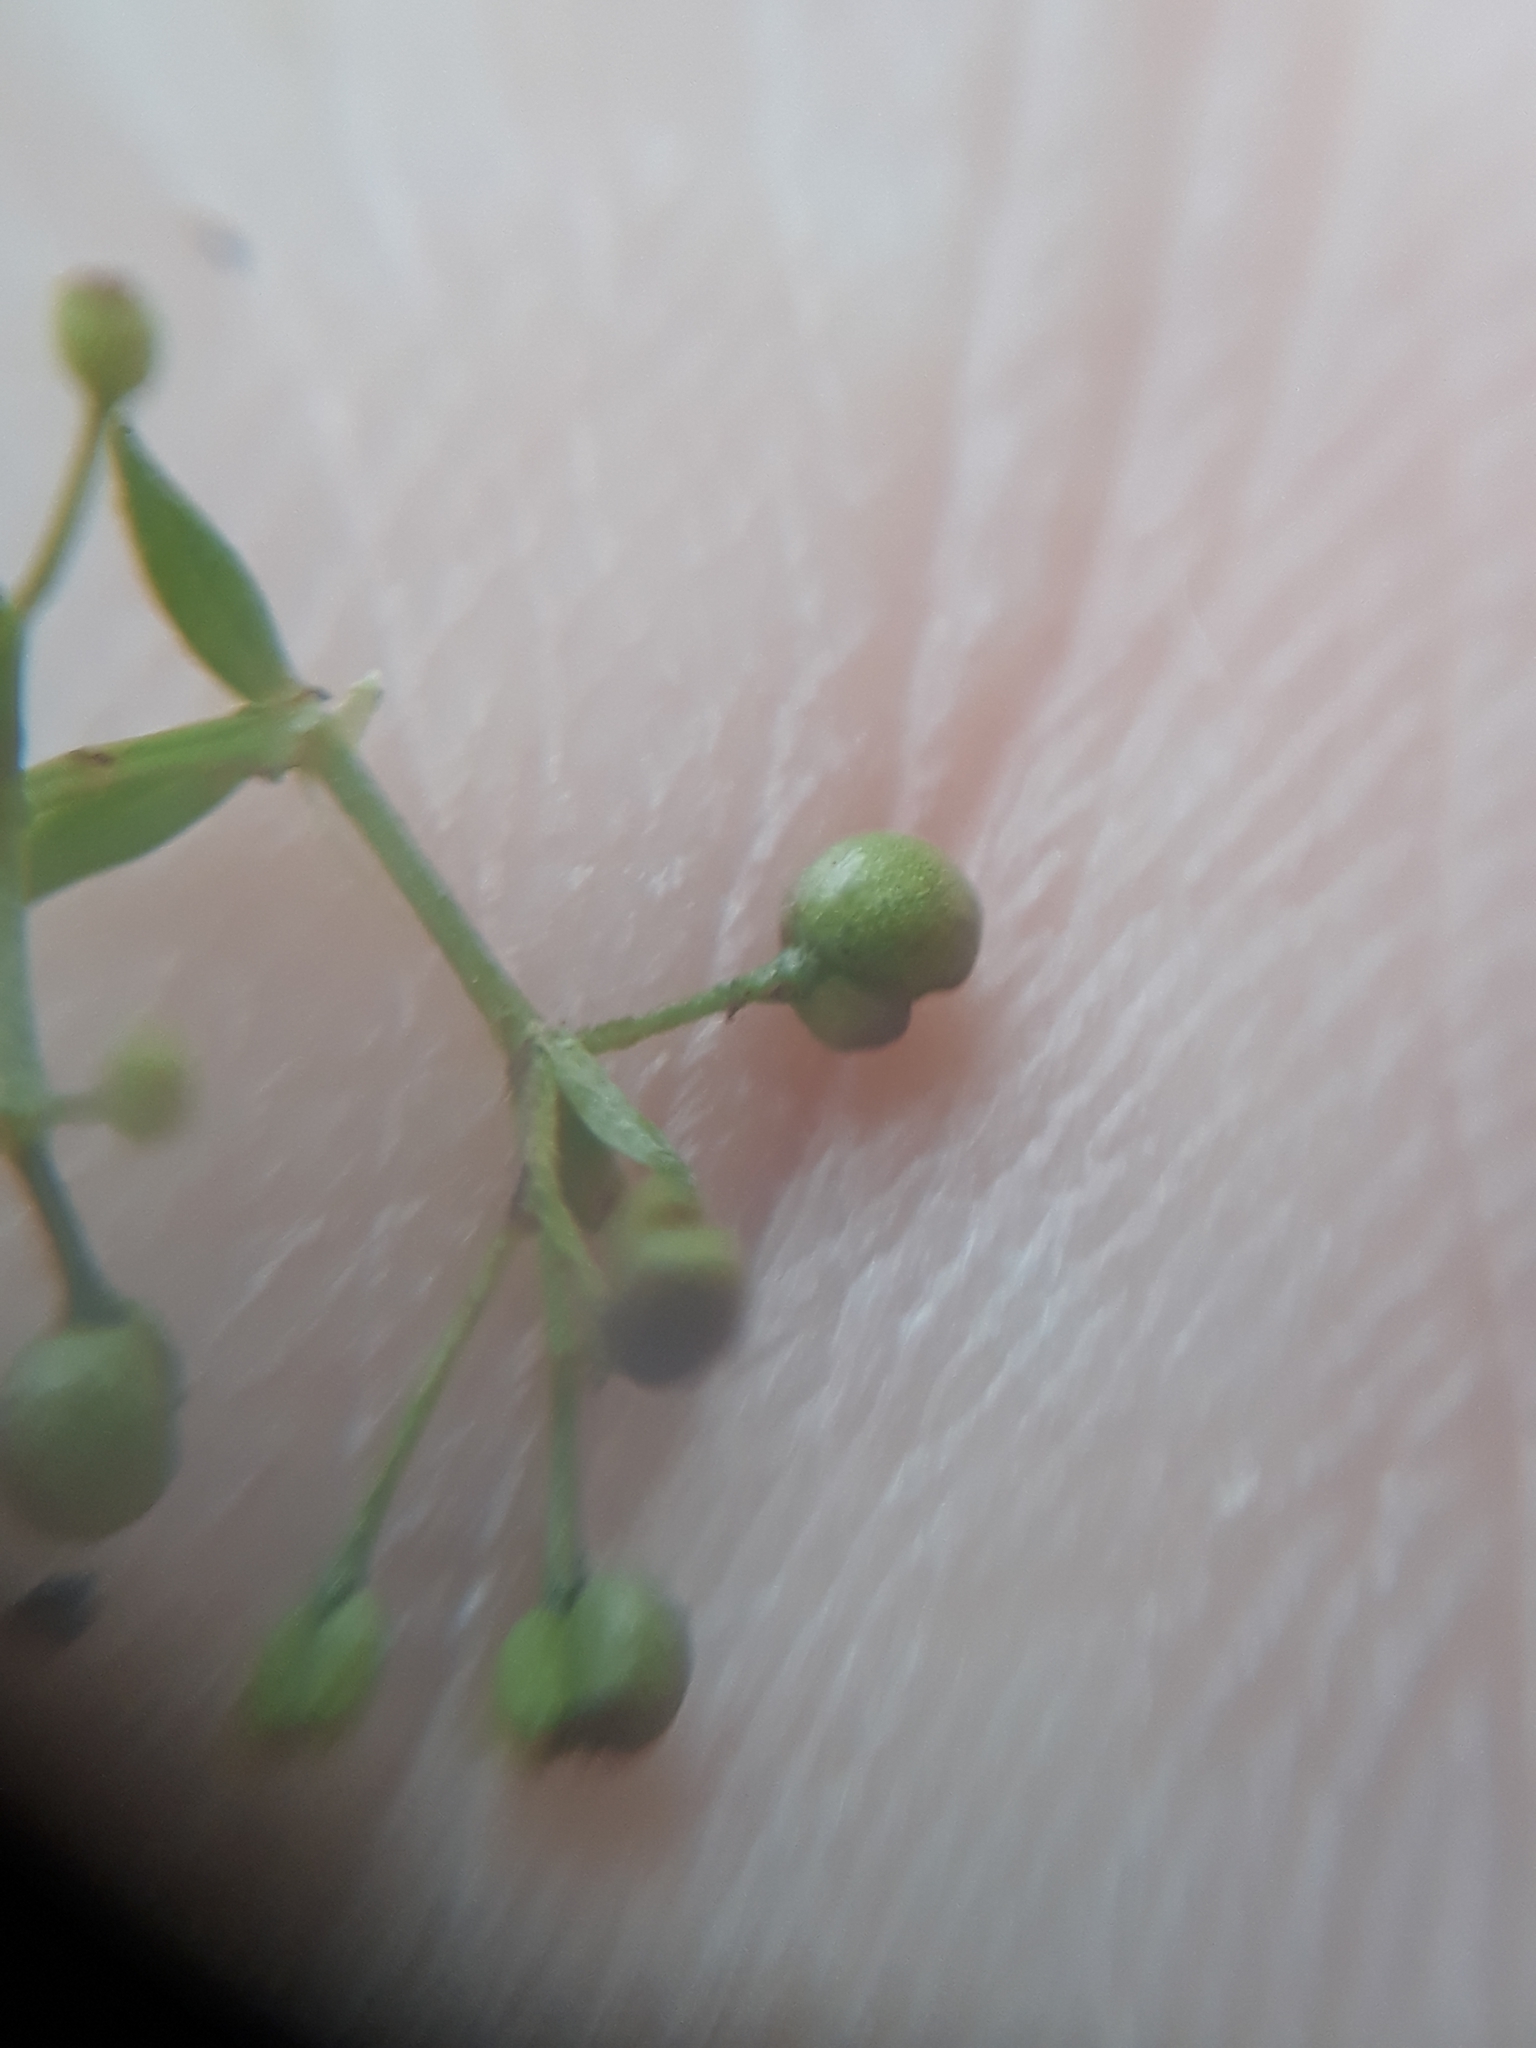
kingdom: Plantae
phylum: Tracheophyta
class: Magnoliopsida
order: Gentianales
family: Rubiaceae
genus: Galium
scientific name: Galium mollugo
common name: Hedge bedstraw
